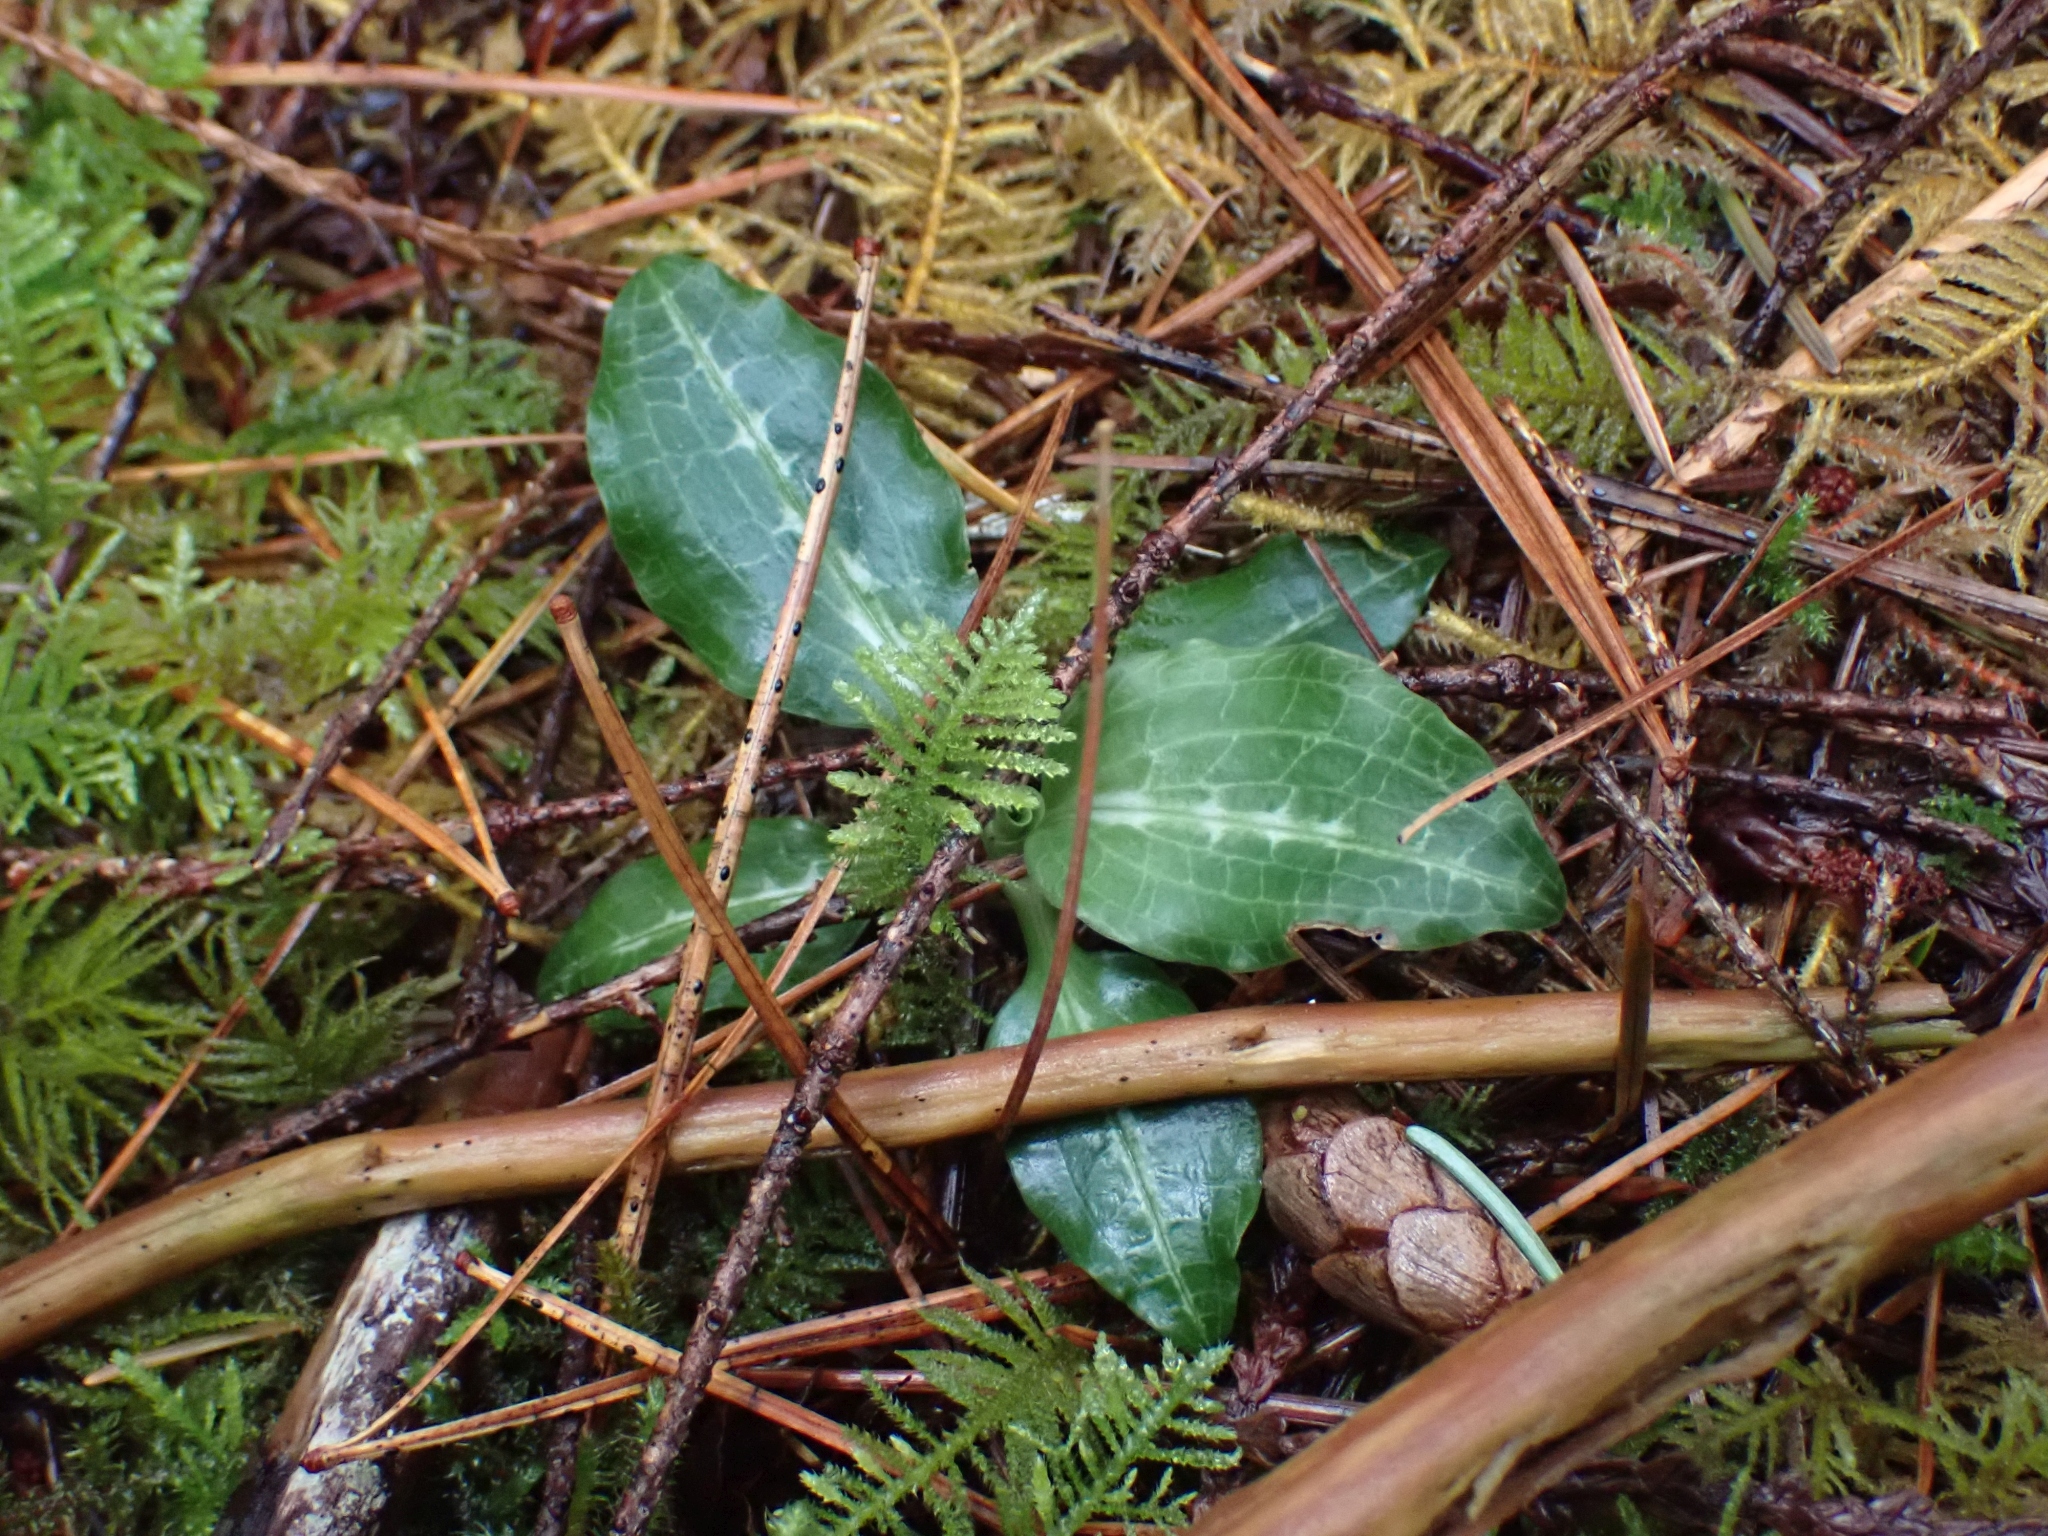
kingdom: Plantae
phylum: Tracheophyta
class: Liliopsida
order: Asparagales
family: Orchidaceae
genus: Goodyera
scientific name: Goodyera oblongifolia
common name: Giant rattlesnake-plantain
